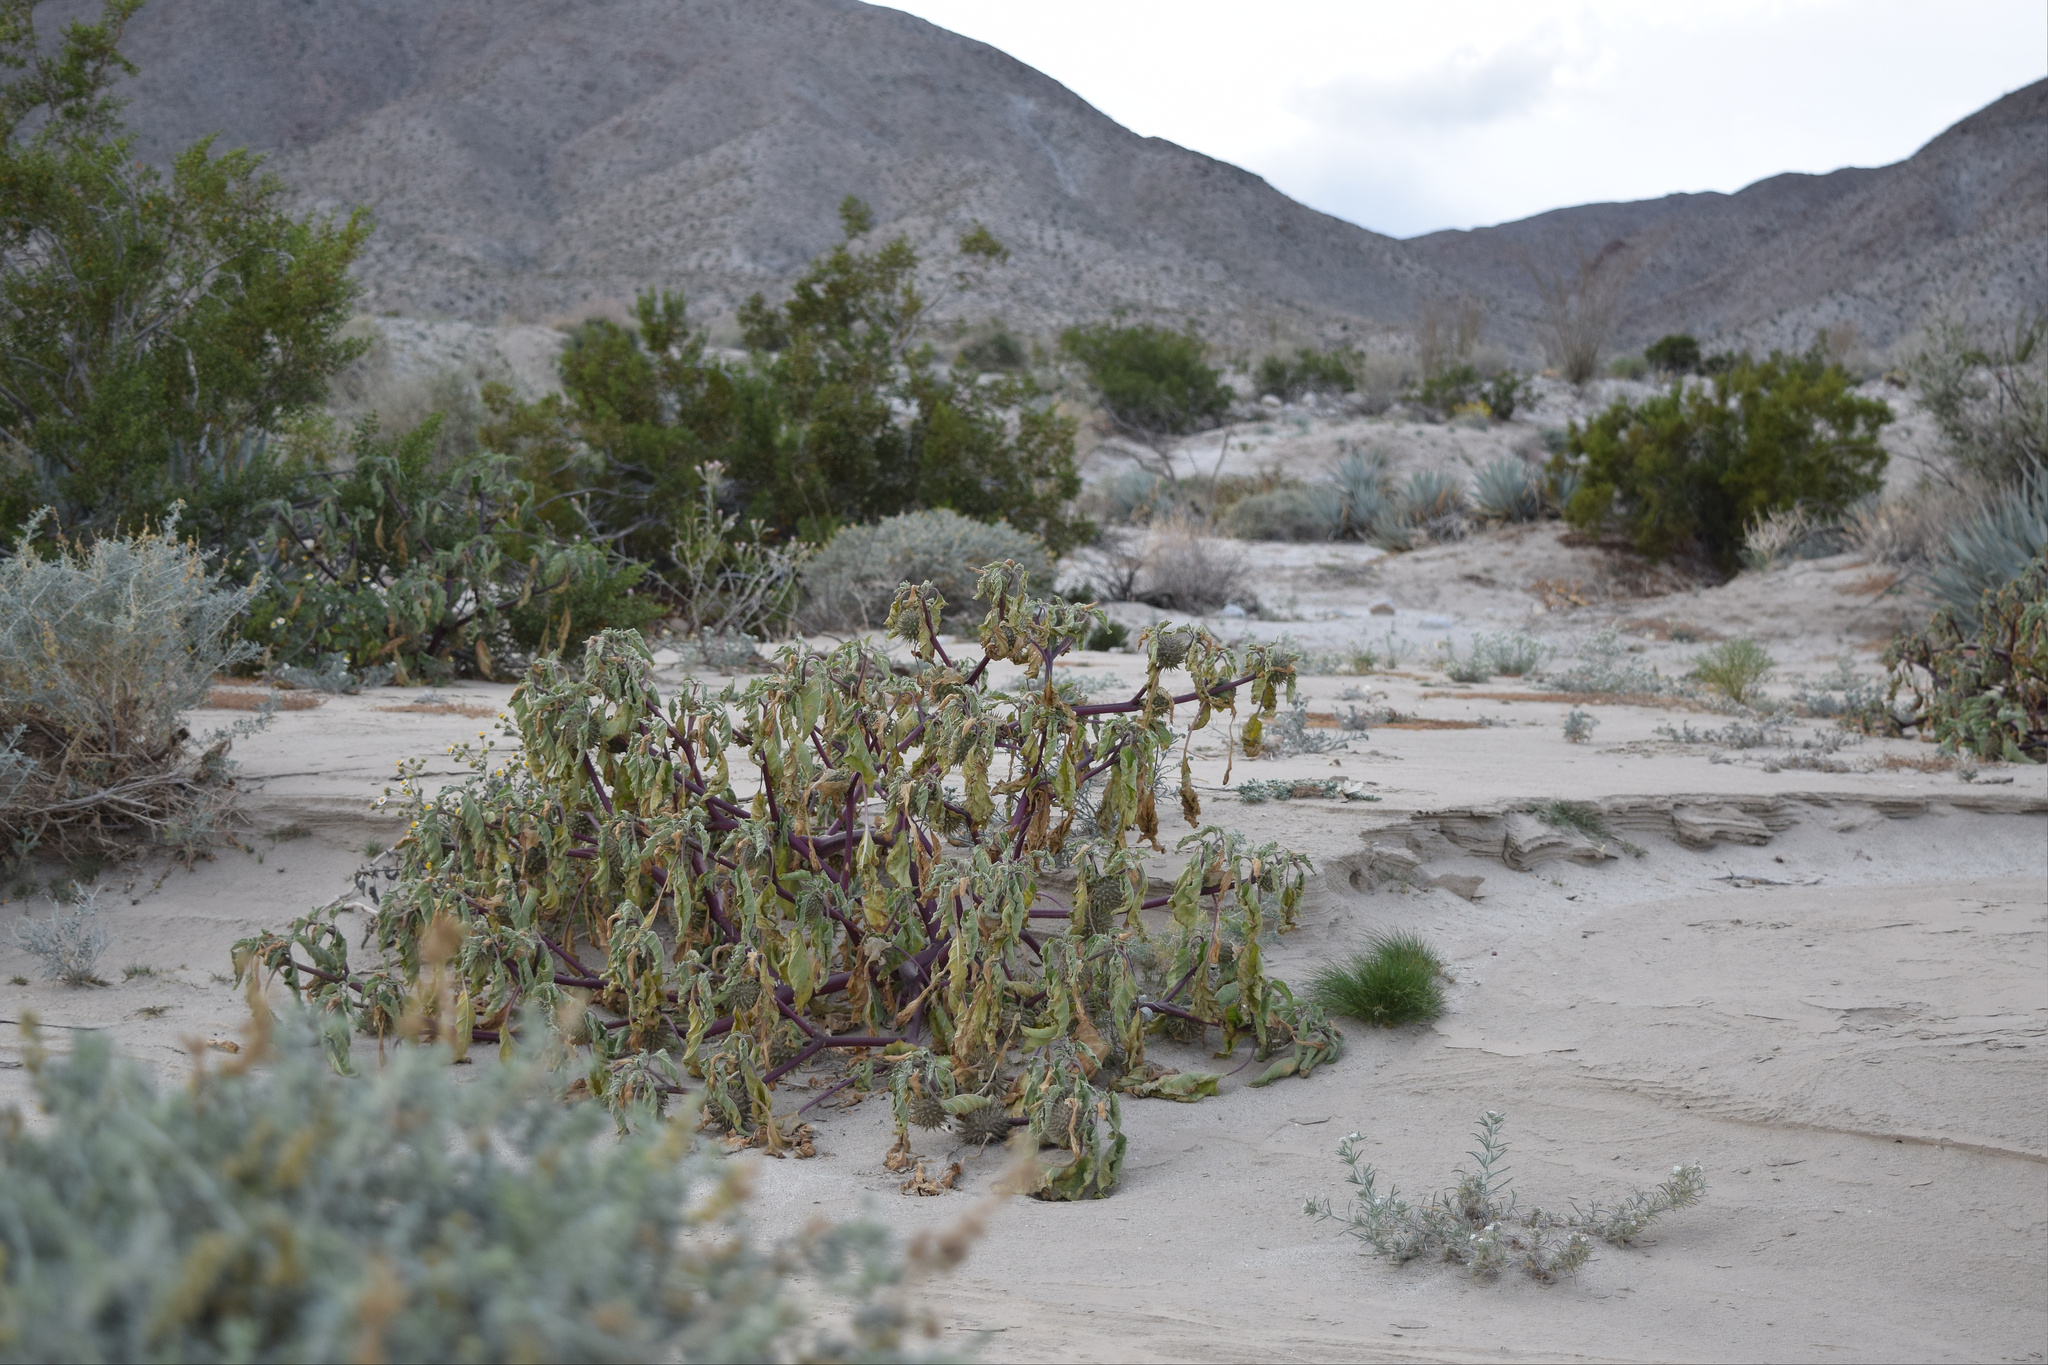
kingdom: Plantae
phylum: Tracheophyta
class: Magnoliopsida
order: Solanales
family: Solanaceae
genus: Datura
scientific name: Datura discolor
